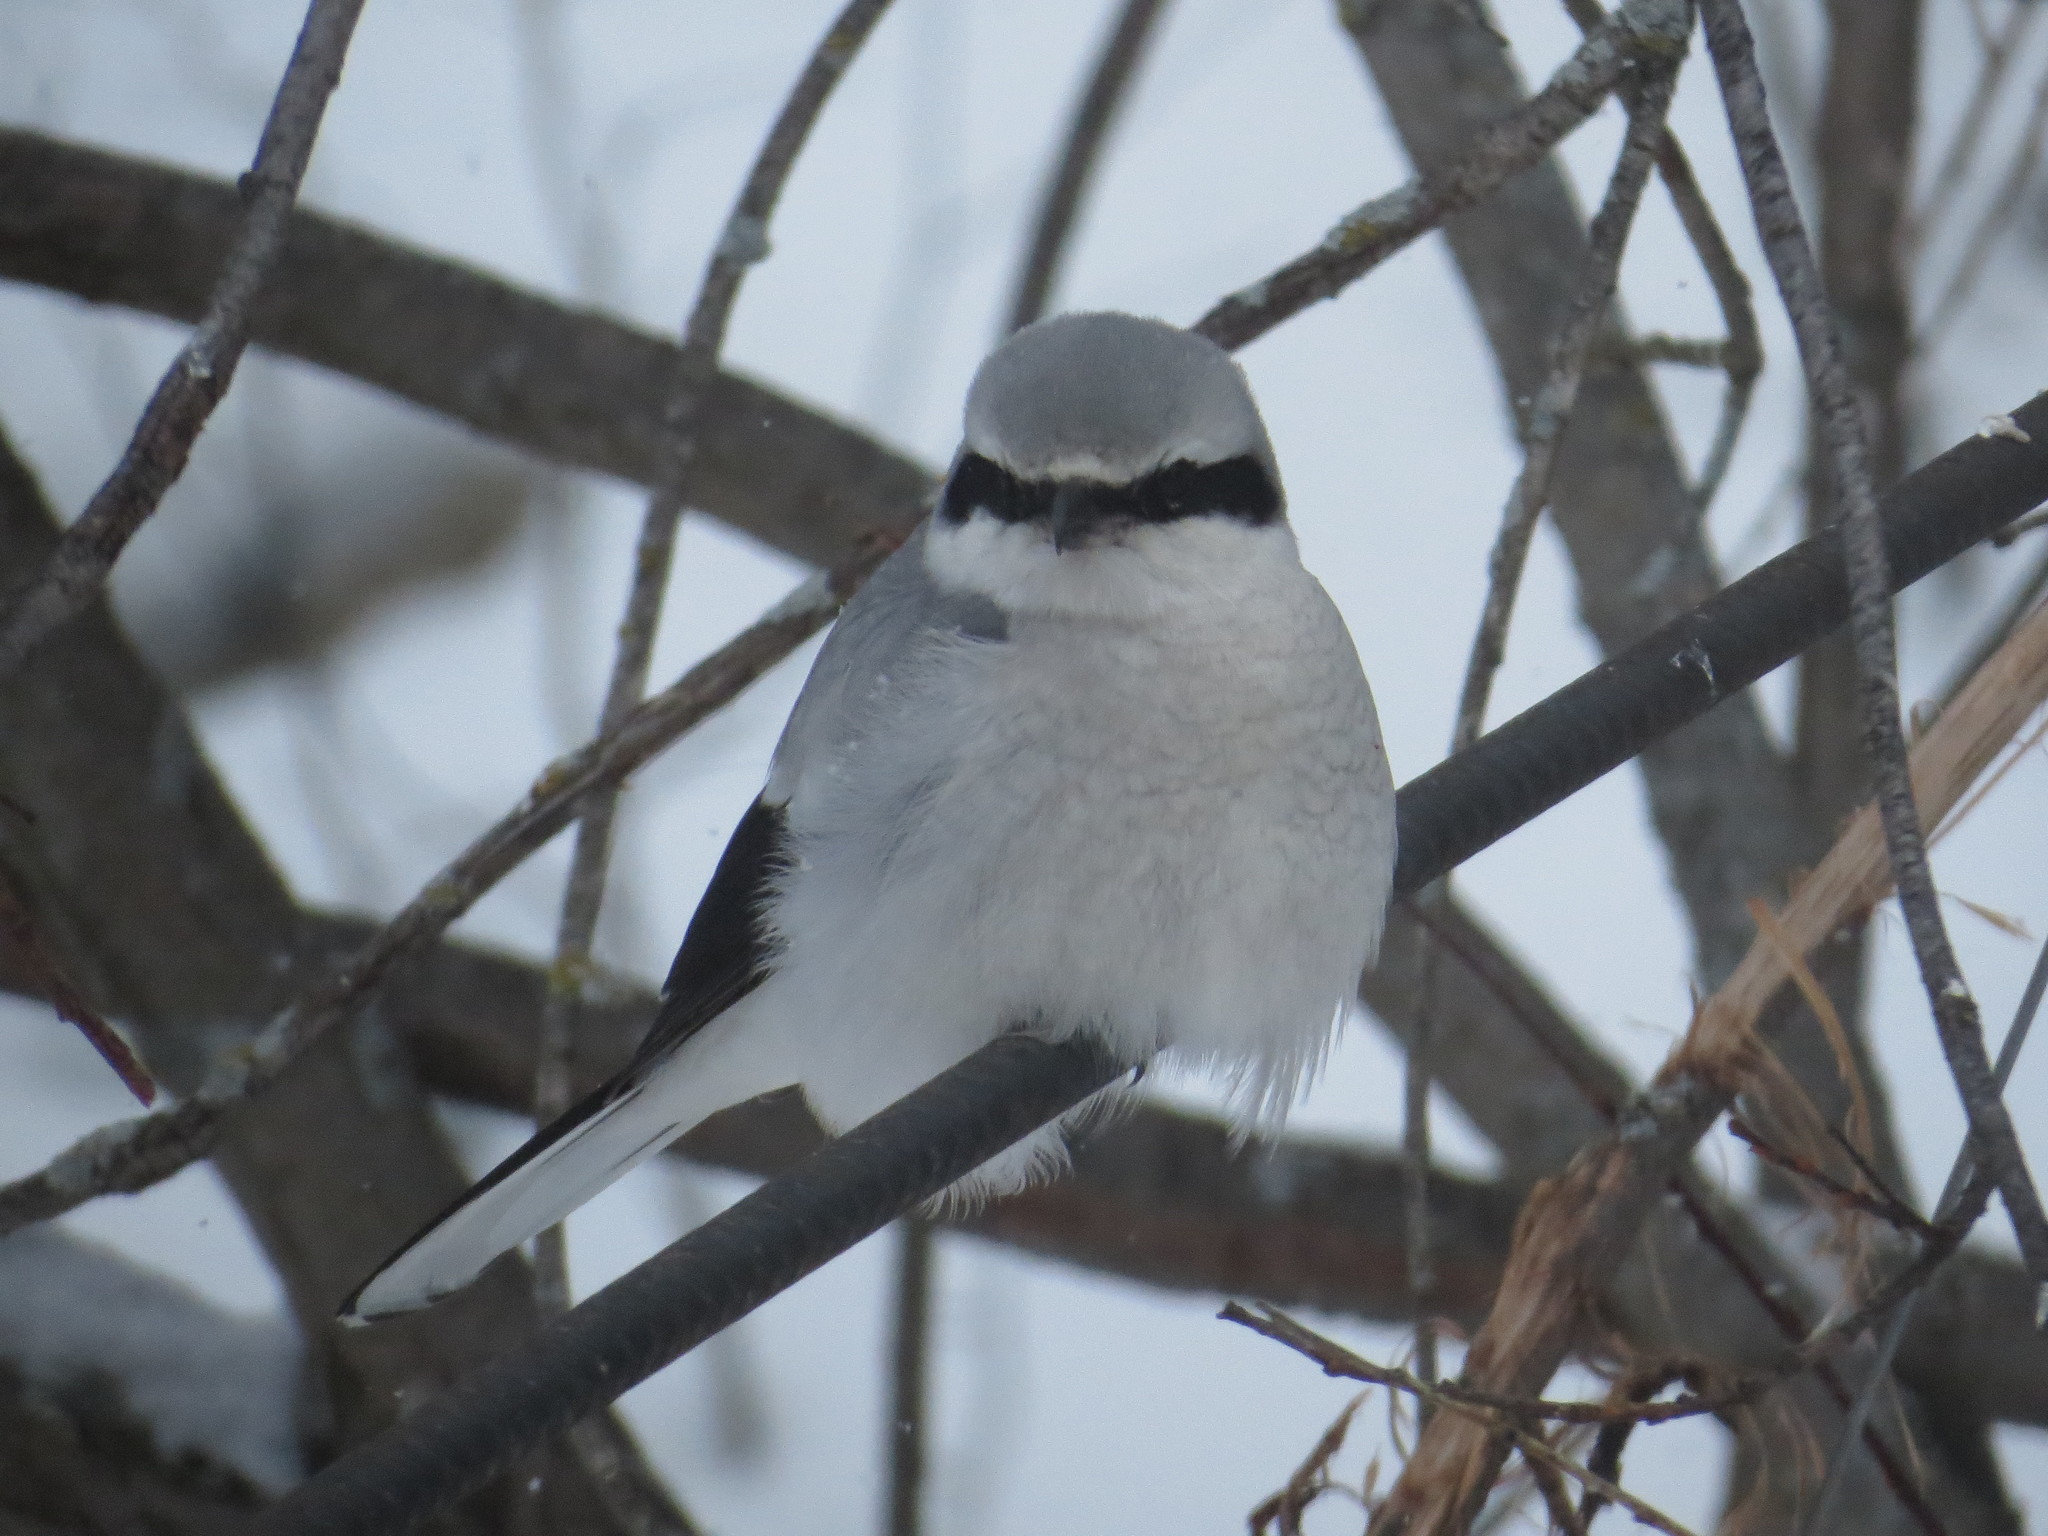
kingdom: Animalia
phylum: Chordata
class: Aves
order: Passeriformes
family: Laniidae
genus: Lanius
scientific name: Lanius borealis
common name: Northern shrike
